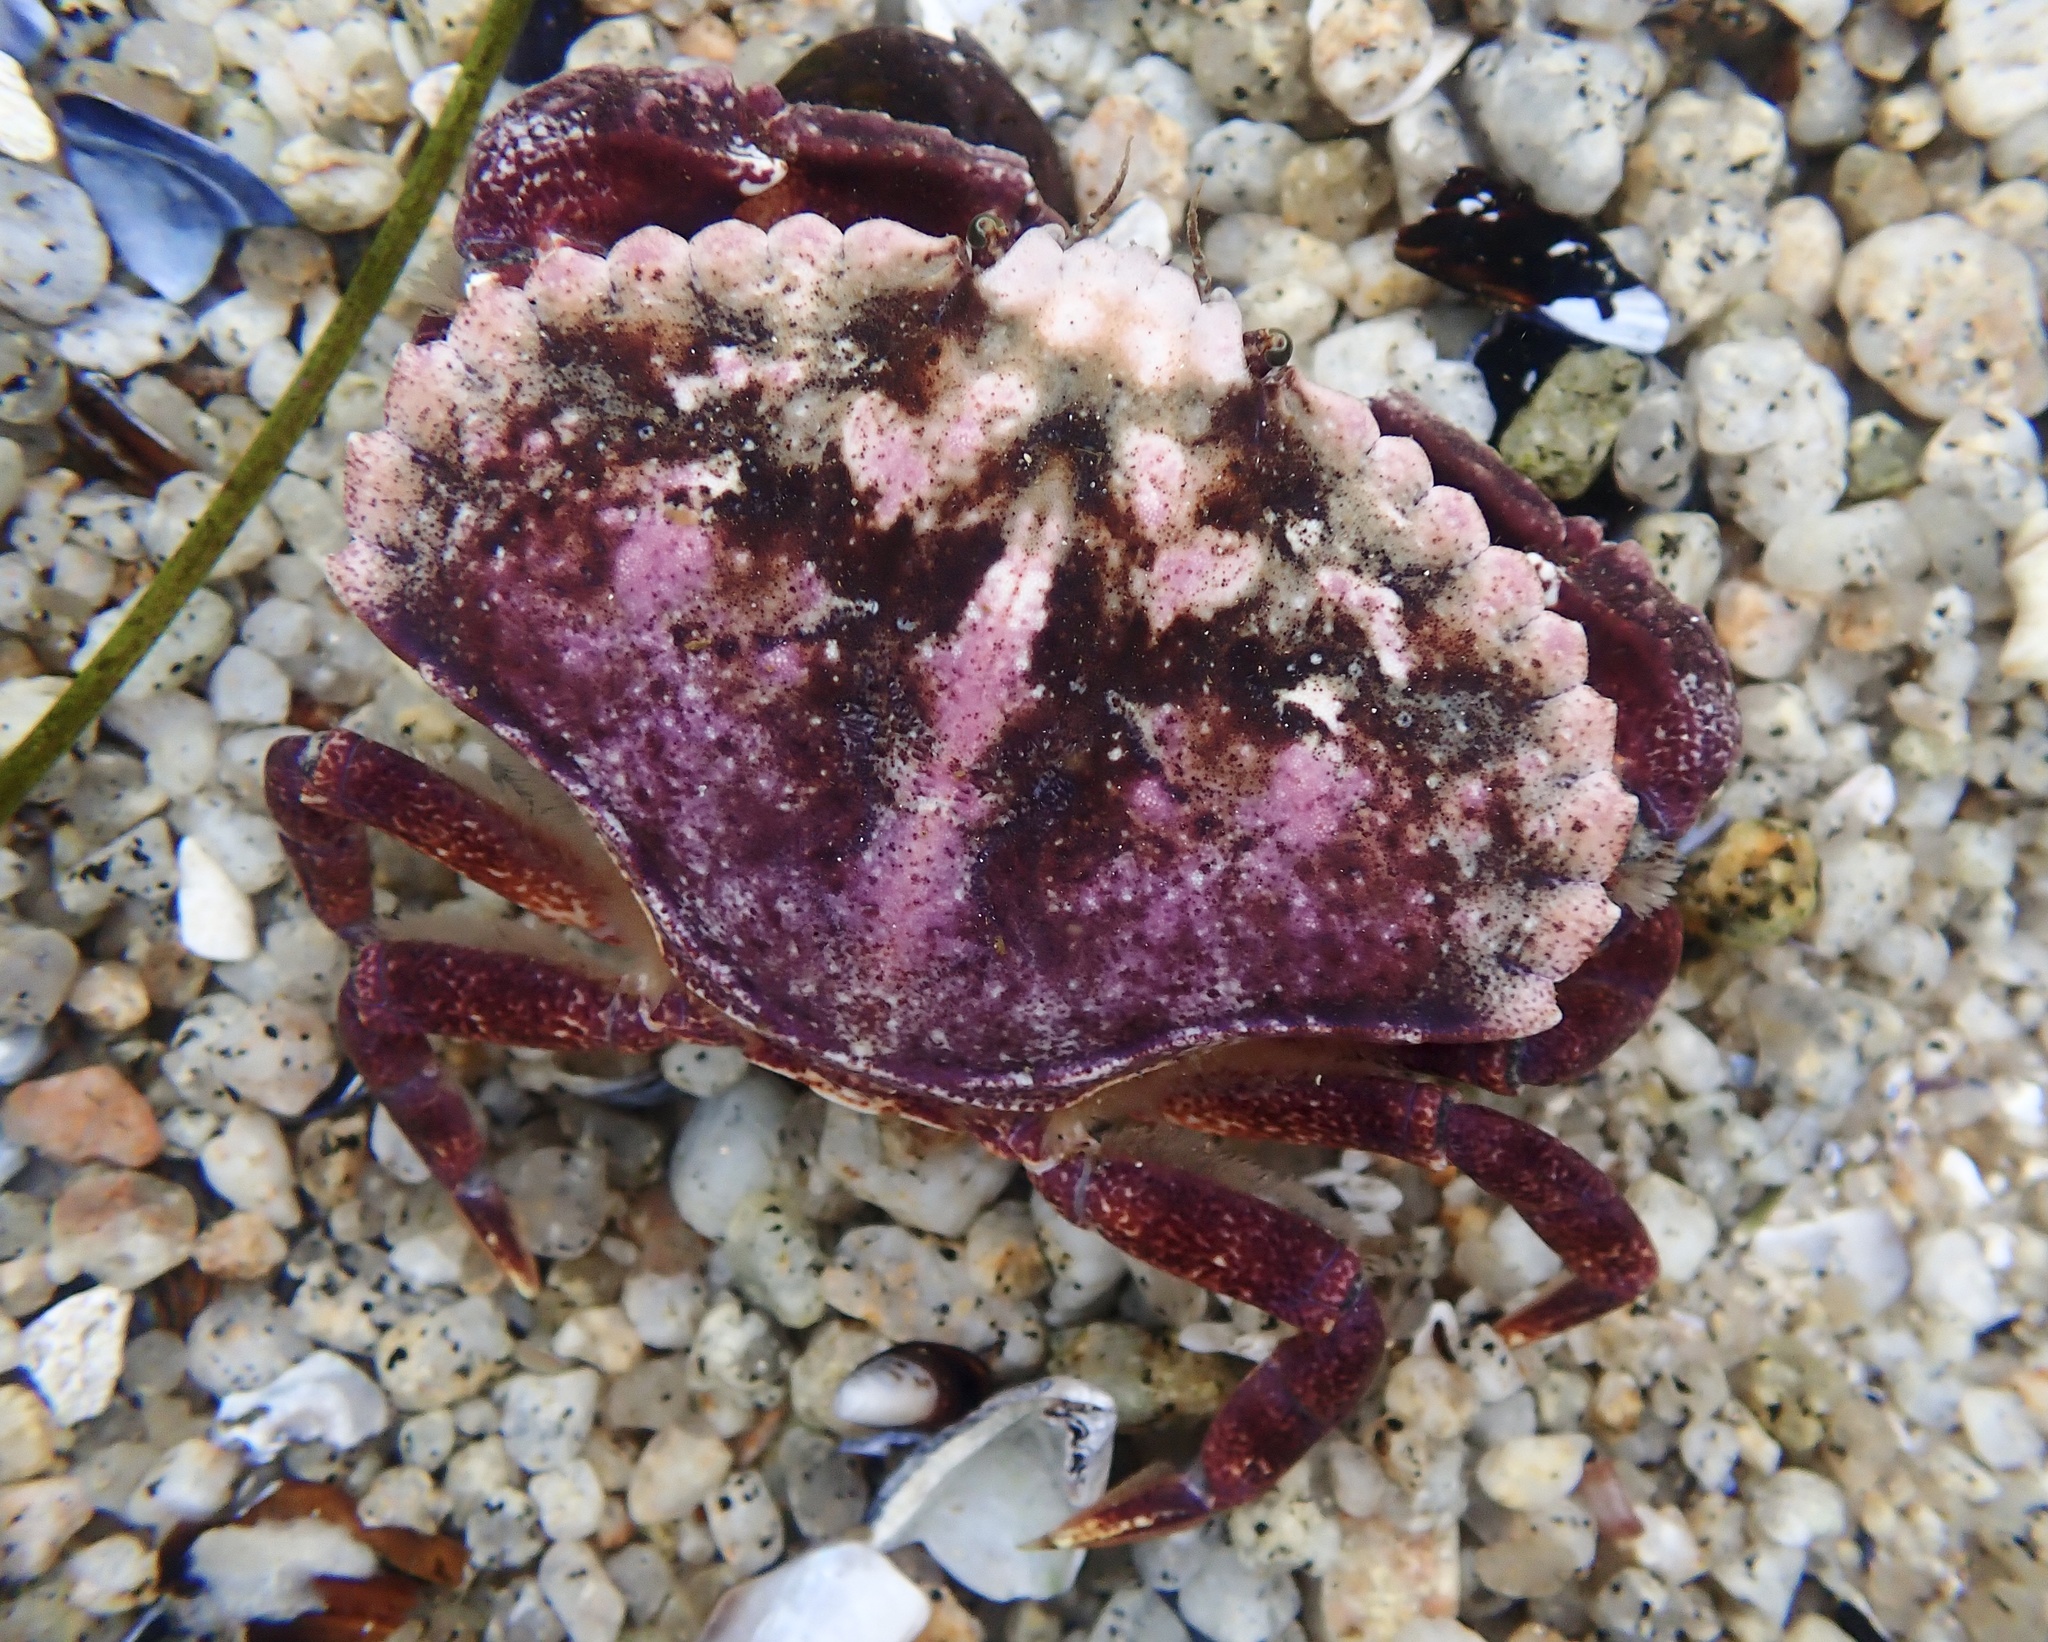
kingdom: Animalia
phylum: Arthropoda
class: Malacostraca
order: Decapoda
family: Cancridae
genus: Cancer
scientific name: Cancer productus
